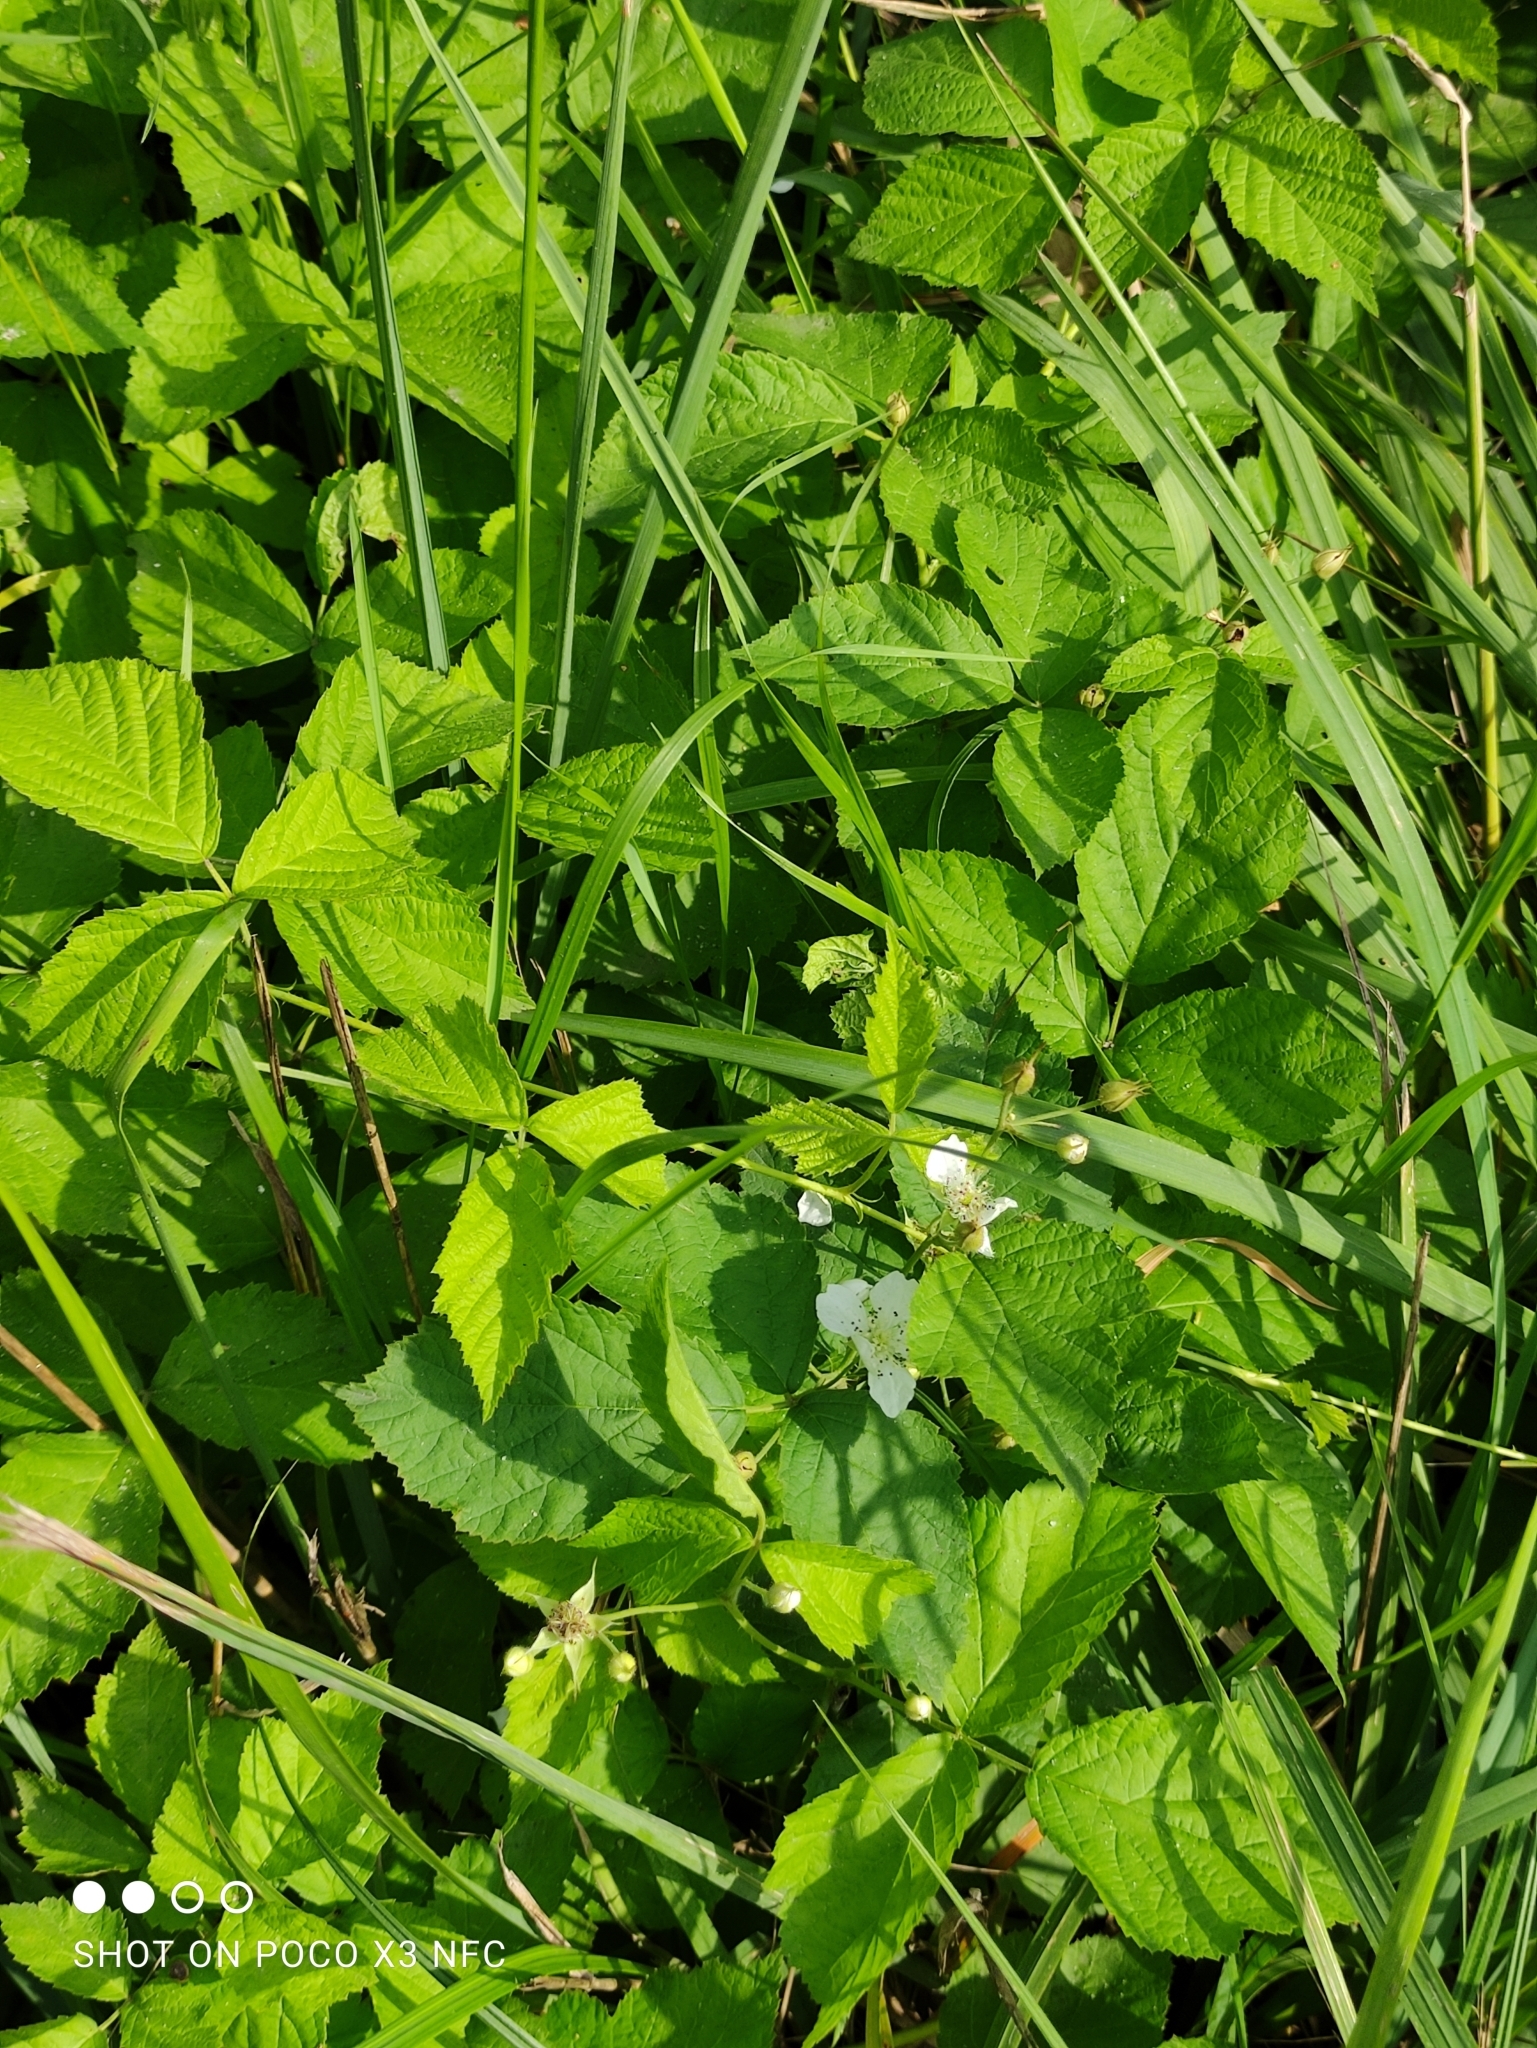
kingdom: Plantae
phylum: Tracheophyta
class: Magnoliopsida
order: Rosales
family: Rosaceae
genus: Rubus
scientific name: Rubus caesius
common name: Dewberry
